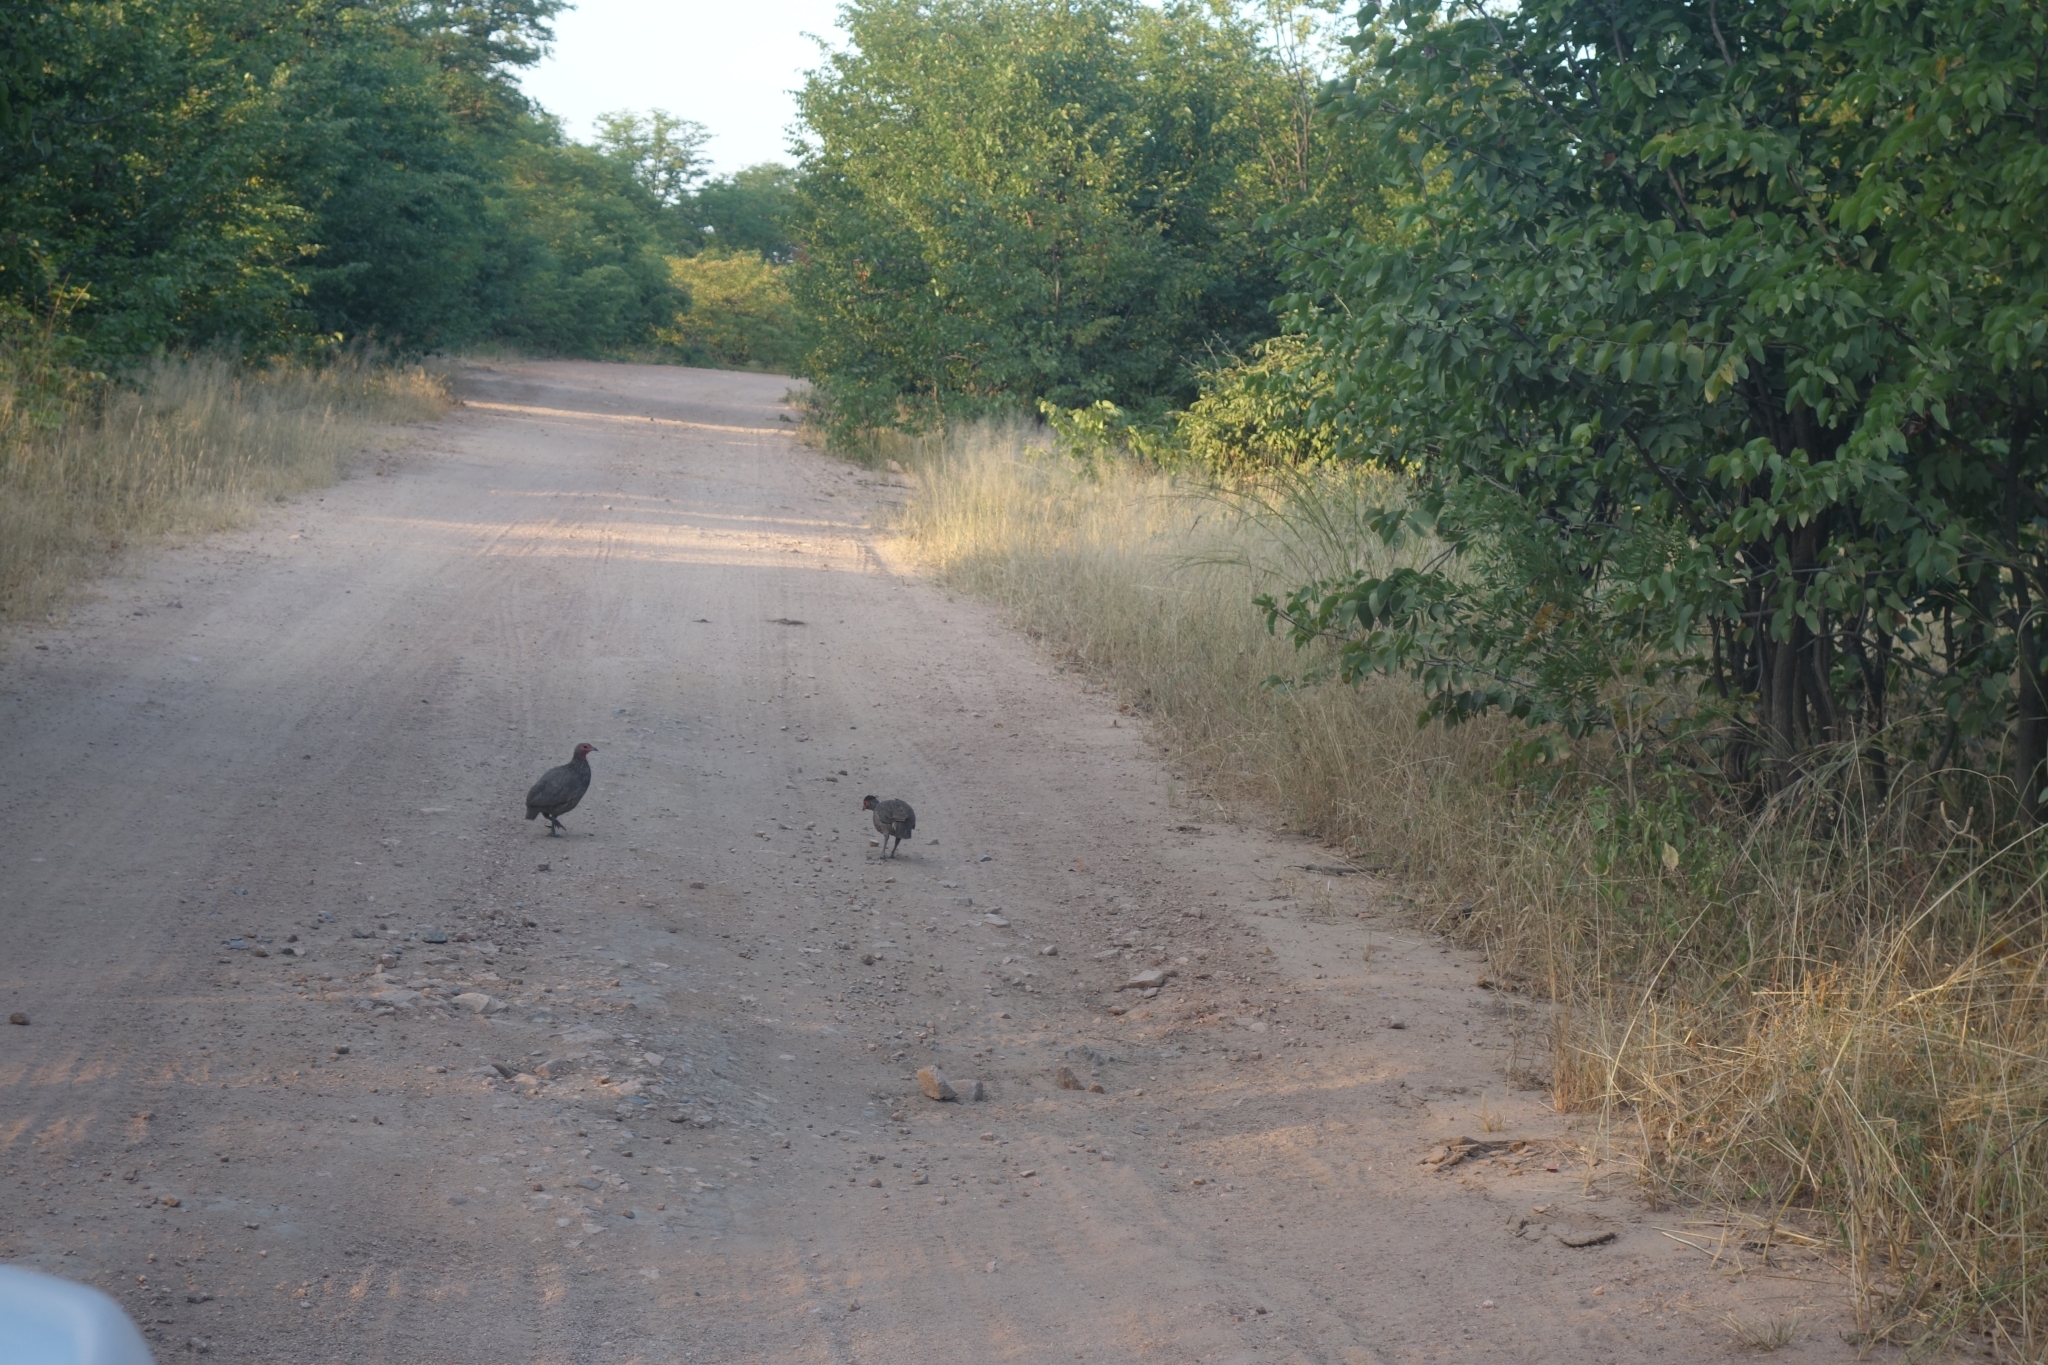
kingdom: Animalia
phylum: Chordata
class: Aves
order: Galliformes
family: Phasianidae
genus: Pternistis
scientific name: Pternistis swainsonii
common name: Swainson's spurfowl
